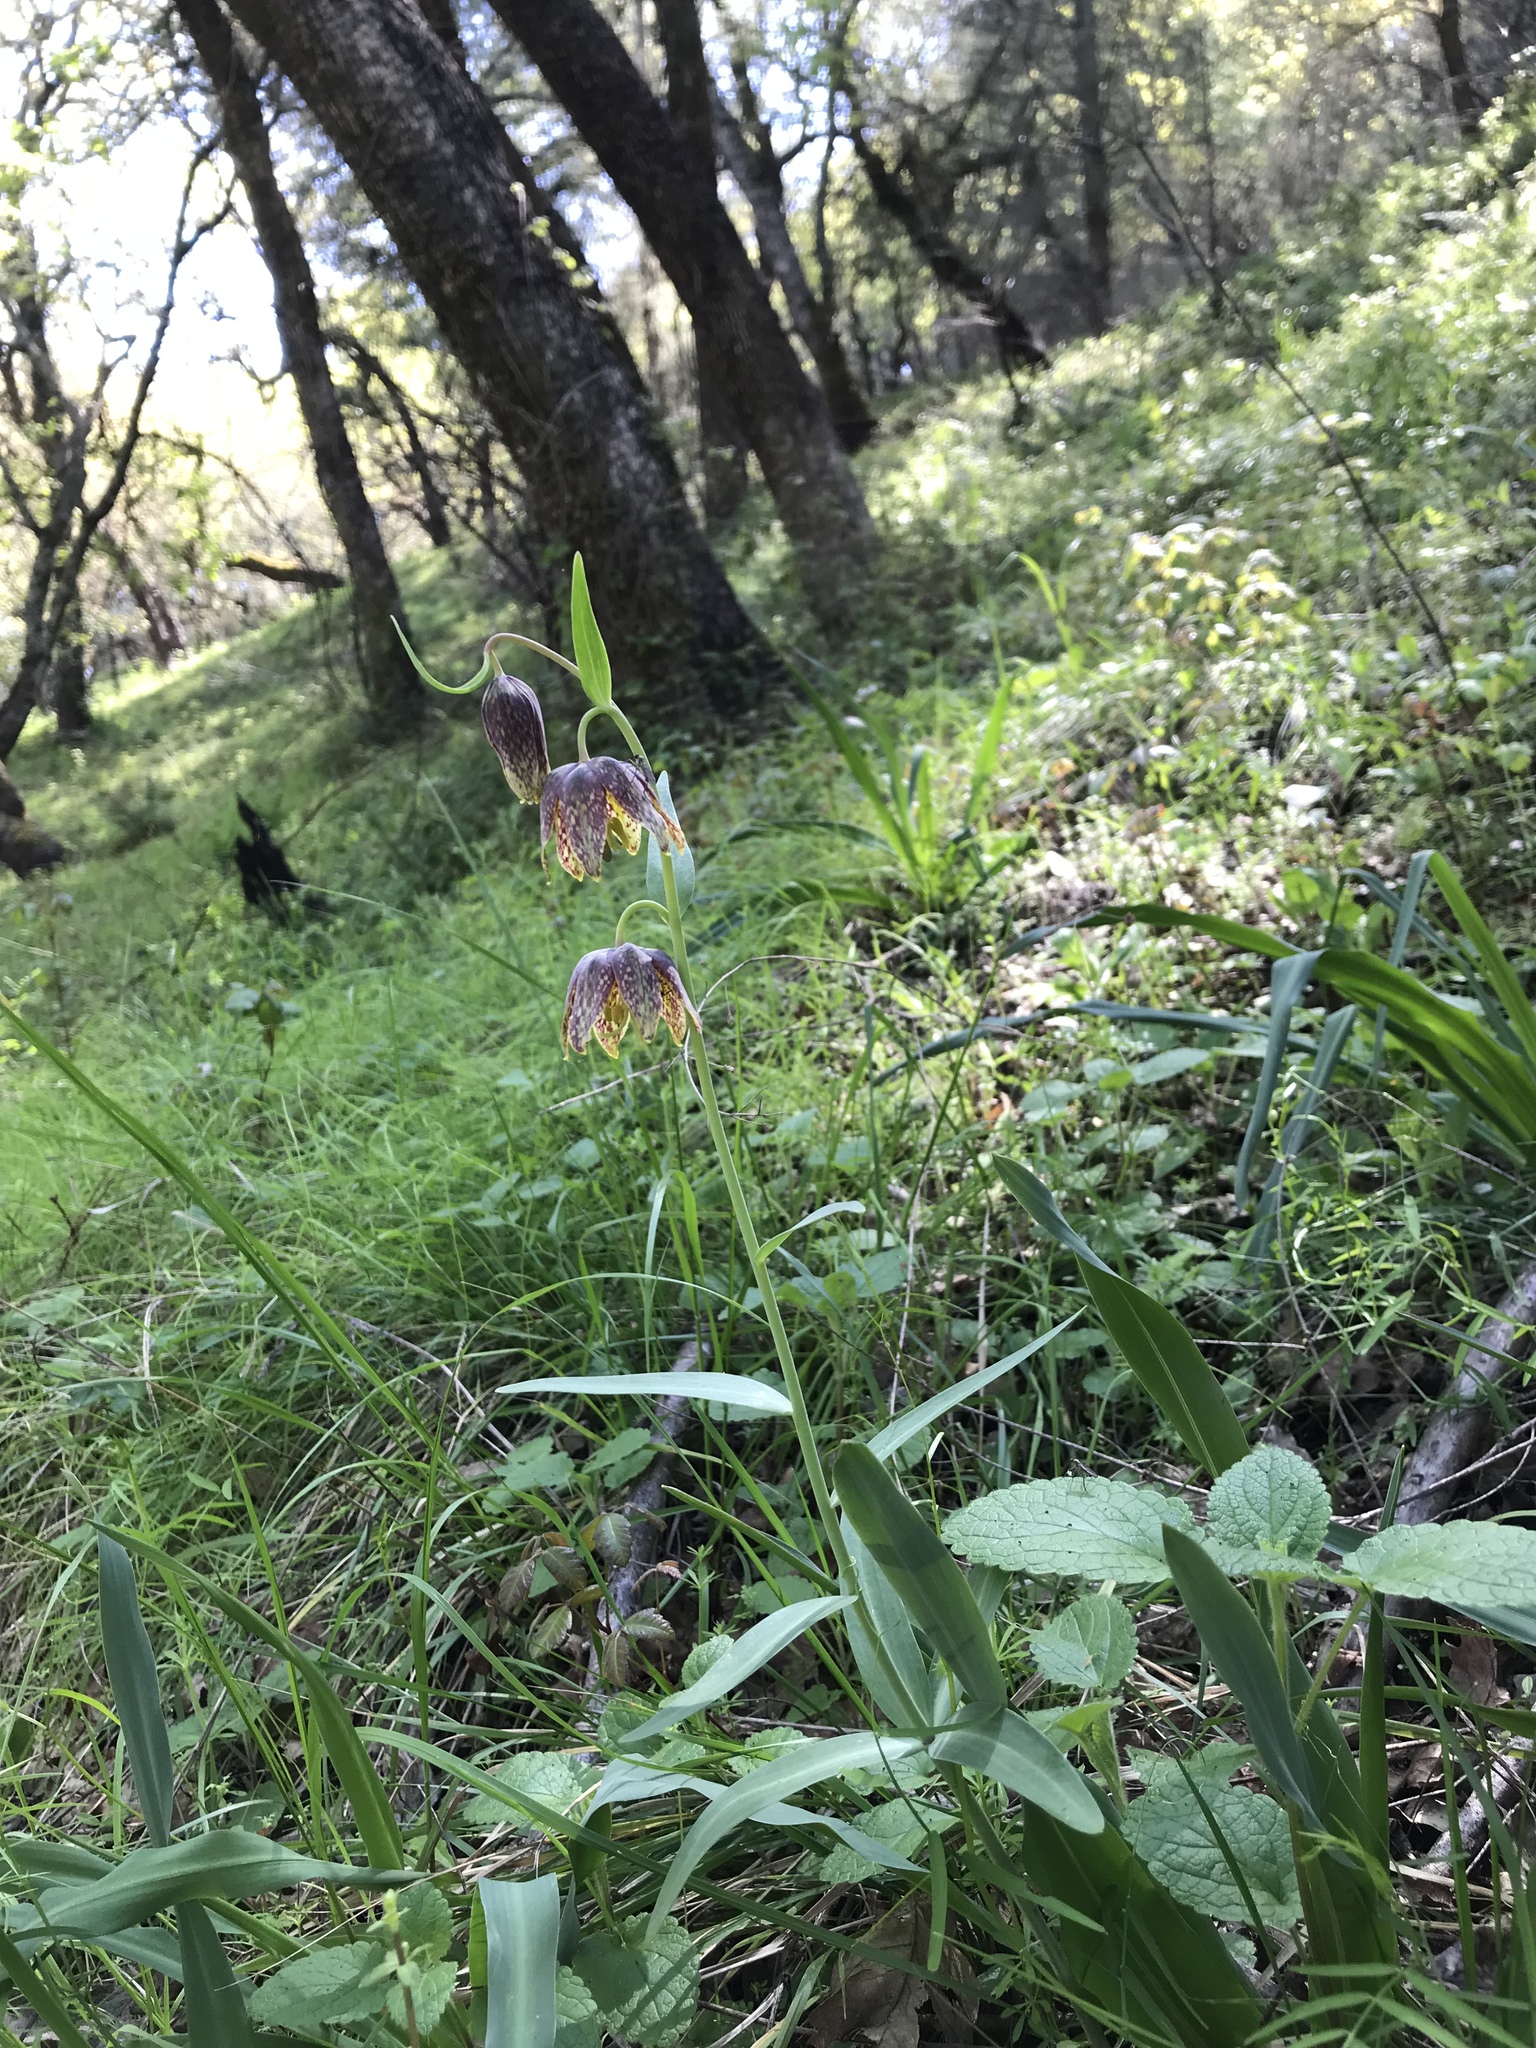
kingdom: Plantae
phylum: Tracheophyta
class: Liliopsida
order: Liliales
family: Liliaceae
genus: Fritillaria
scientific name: Fritillaria affinis
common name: Ojai fritillary
